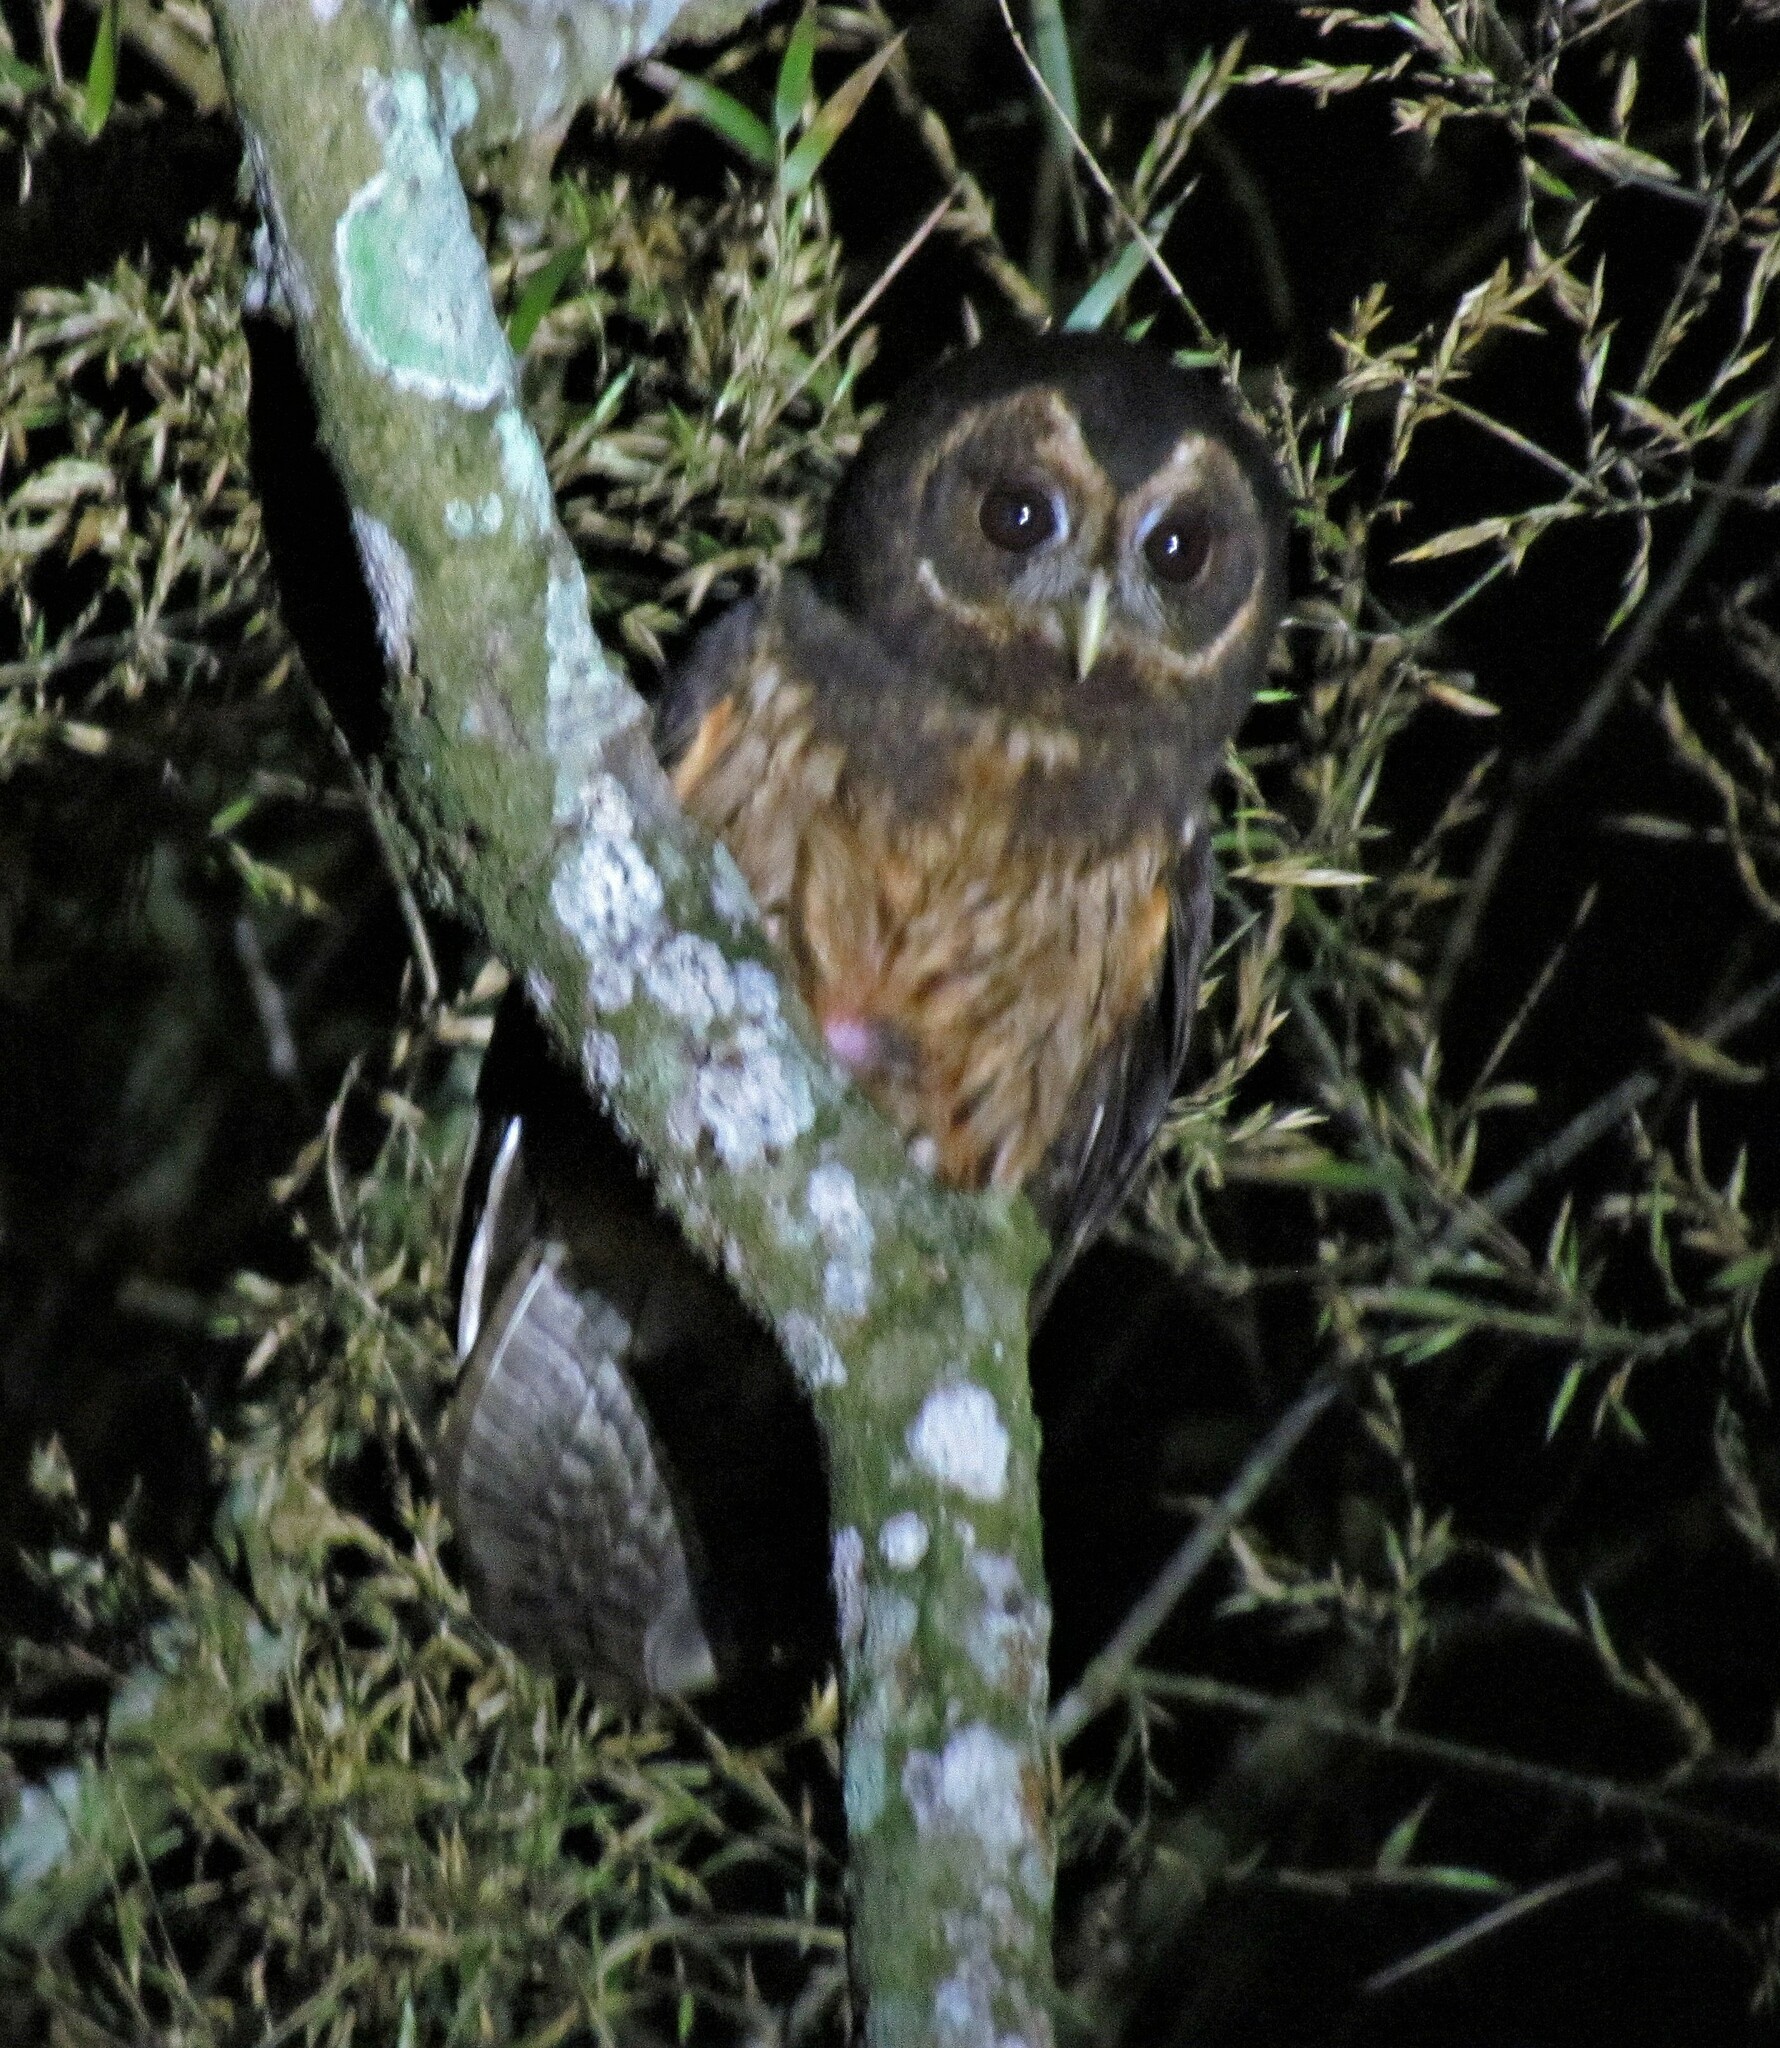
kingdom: Animalia
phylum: Chordata
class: Aves
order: Strigiformes
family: Strigidae
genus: Strix
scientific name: Strix virgata
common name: Mottled owl
